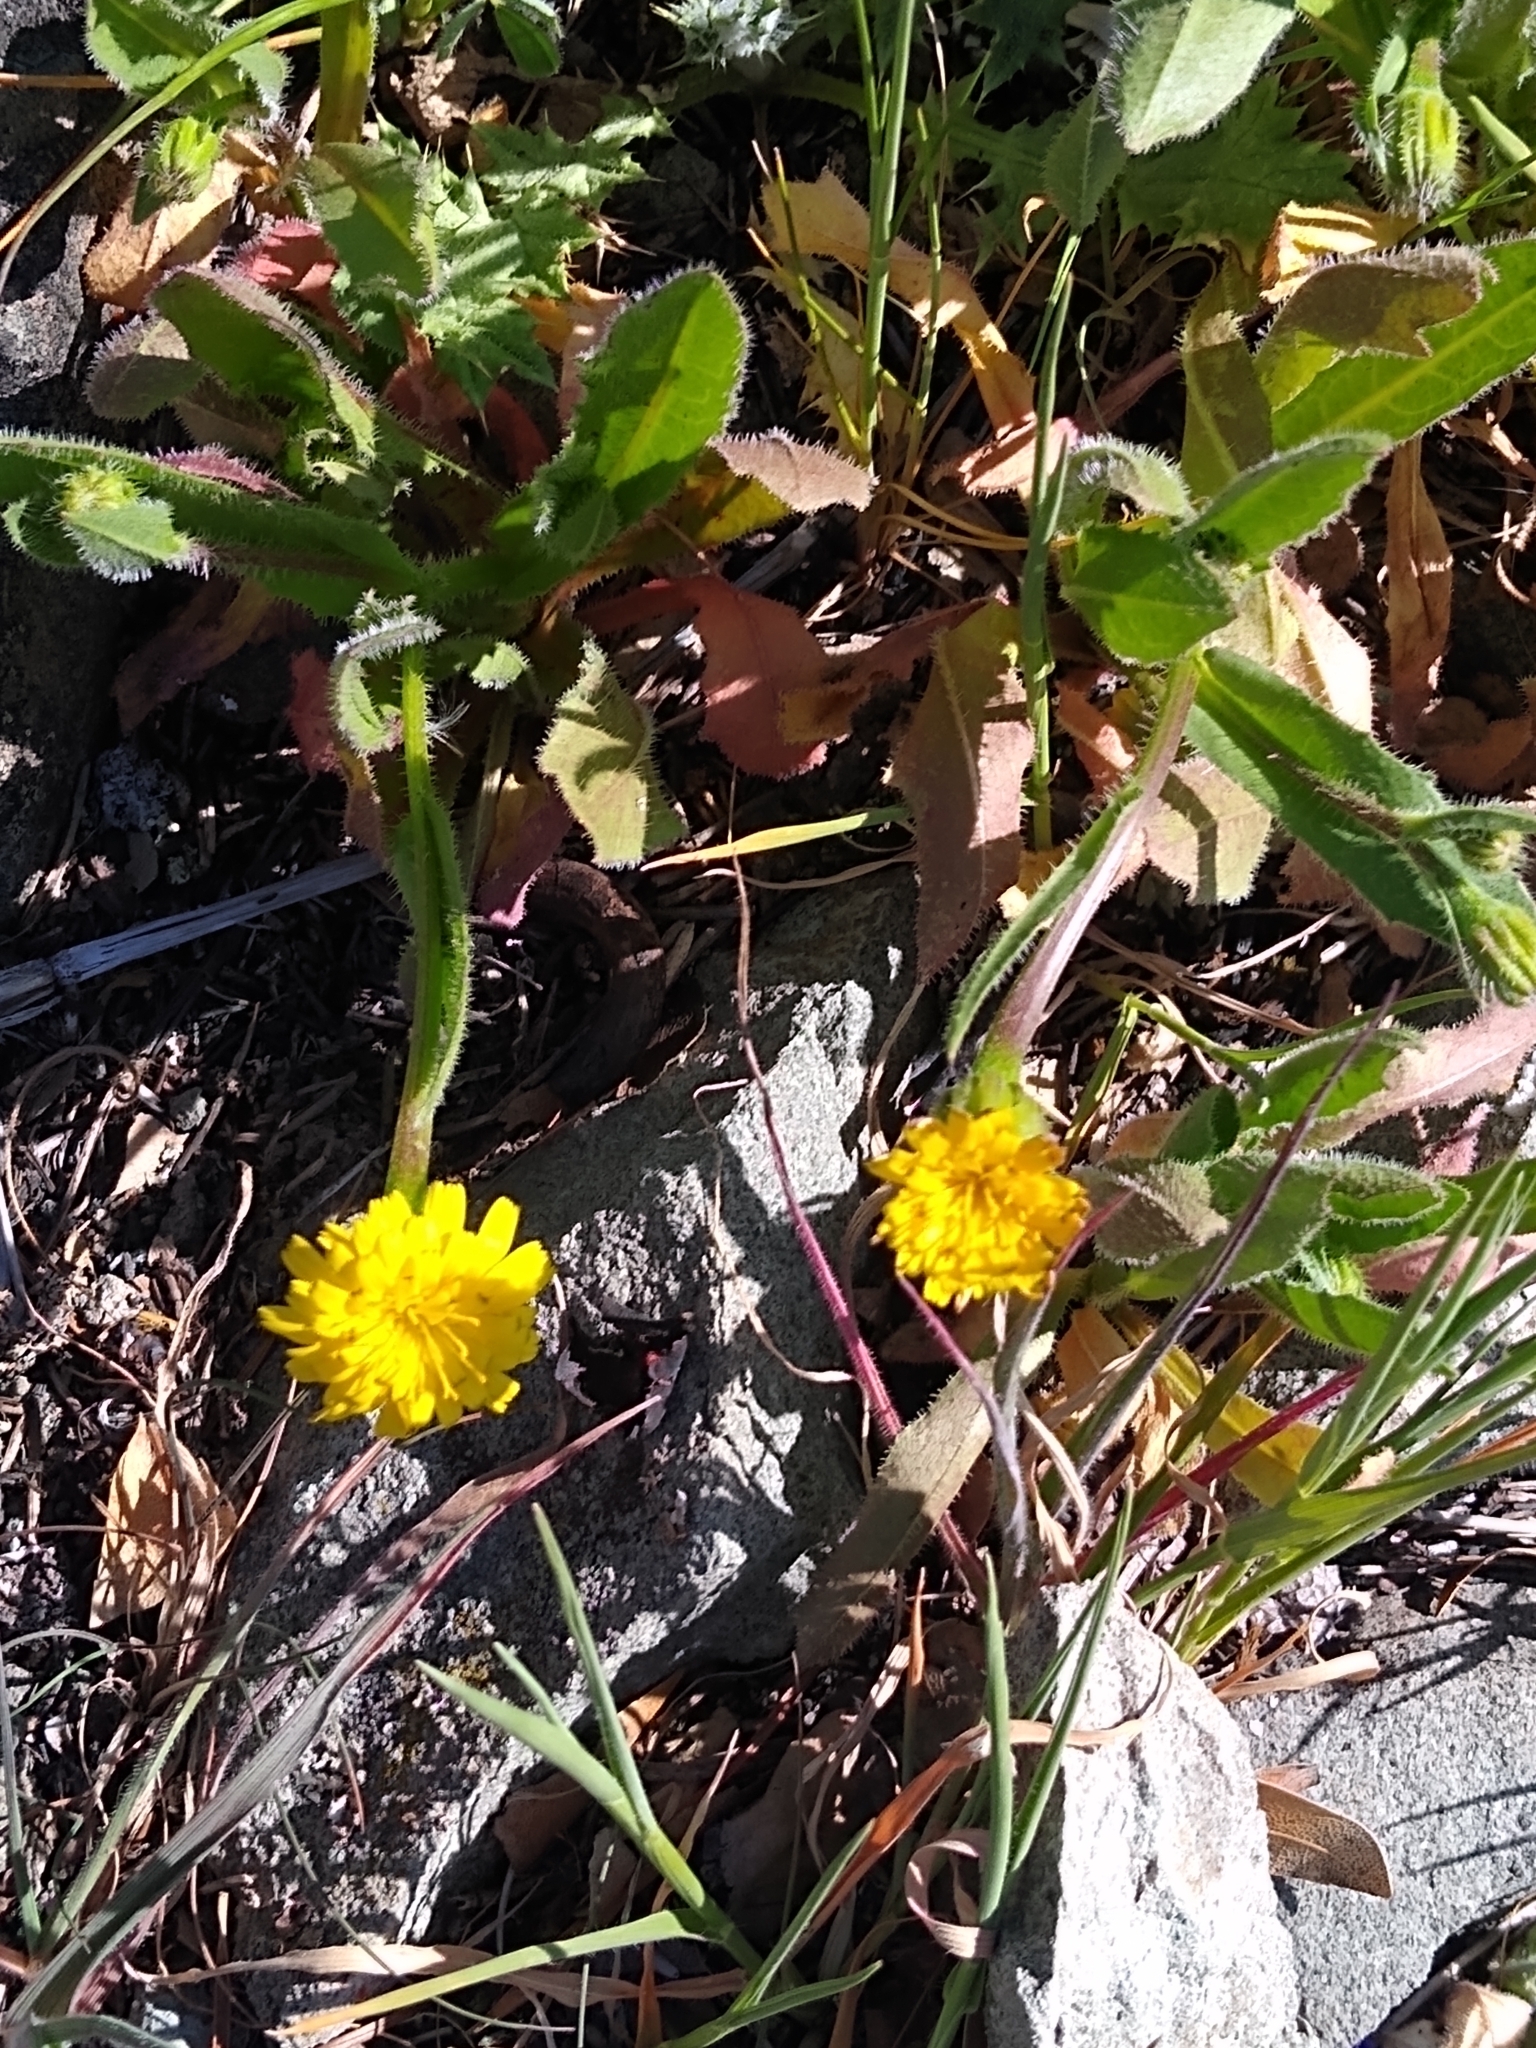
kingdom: Plantae
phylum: Tracheophyta
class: Magnoliopsida
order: Asterales
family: Asteraceae
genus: Helminthotheca
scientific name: Helminthotheca echioides
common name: Ox-tongue
